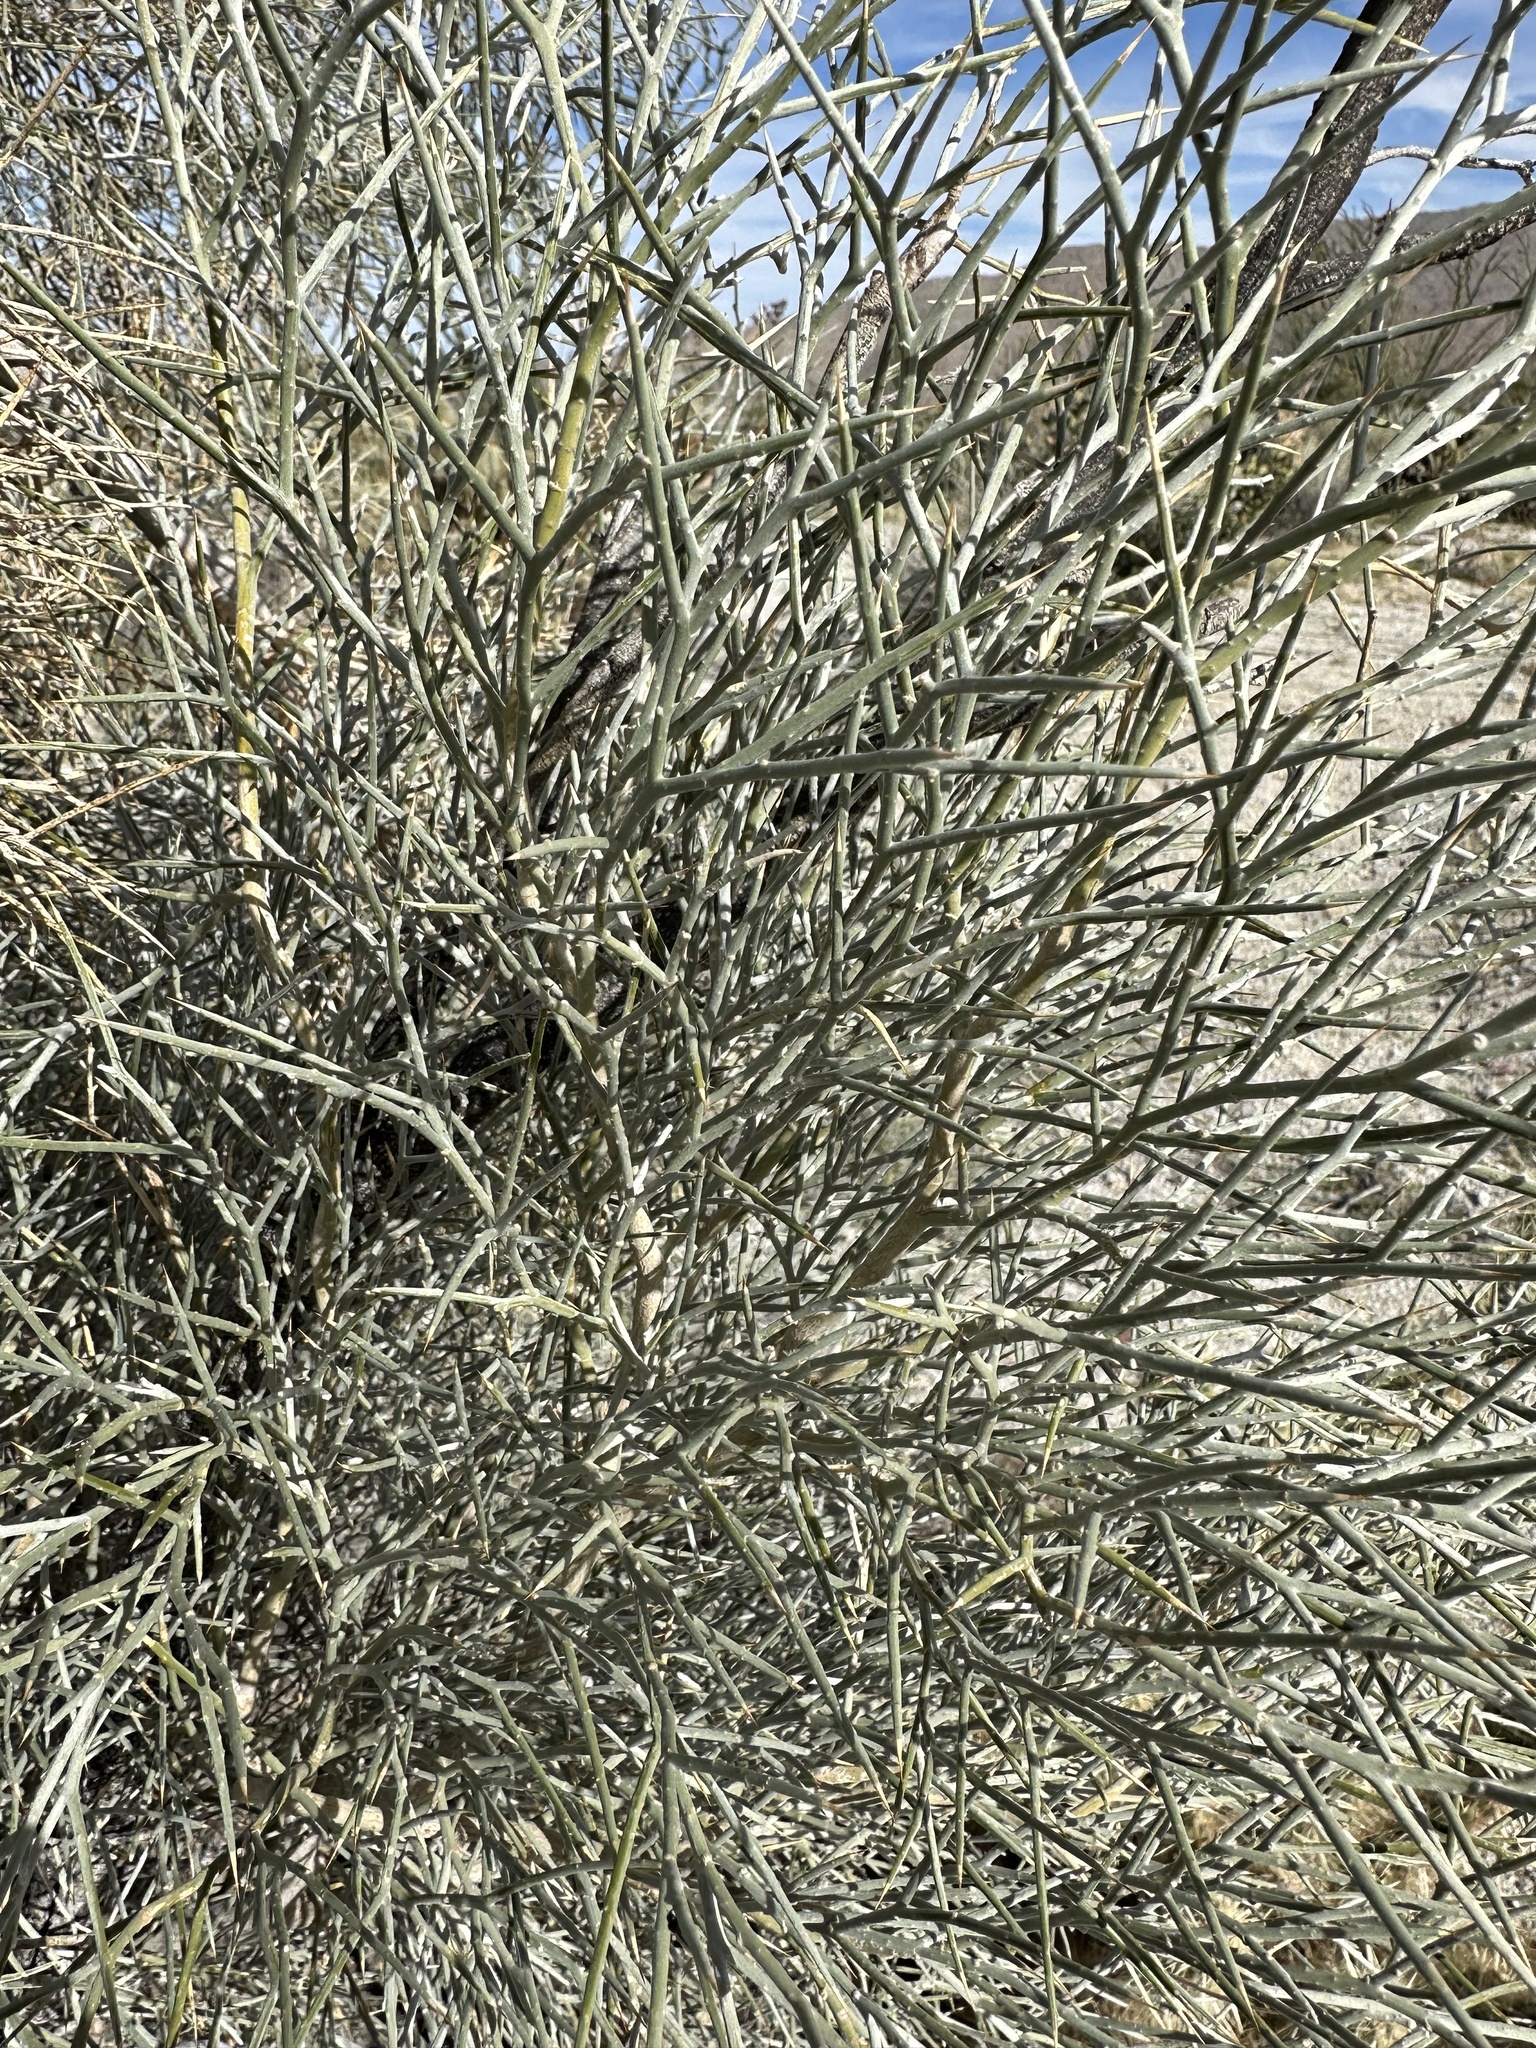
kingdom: Plantae
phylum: Tracheophyta
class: Magnoliopsida
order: Fabales
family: Fabaceae
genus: Psorothamnus
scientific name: Psorothamnus spinosus
